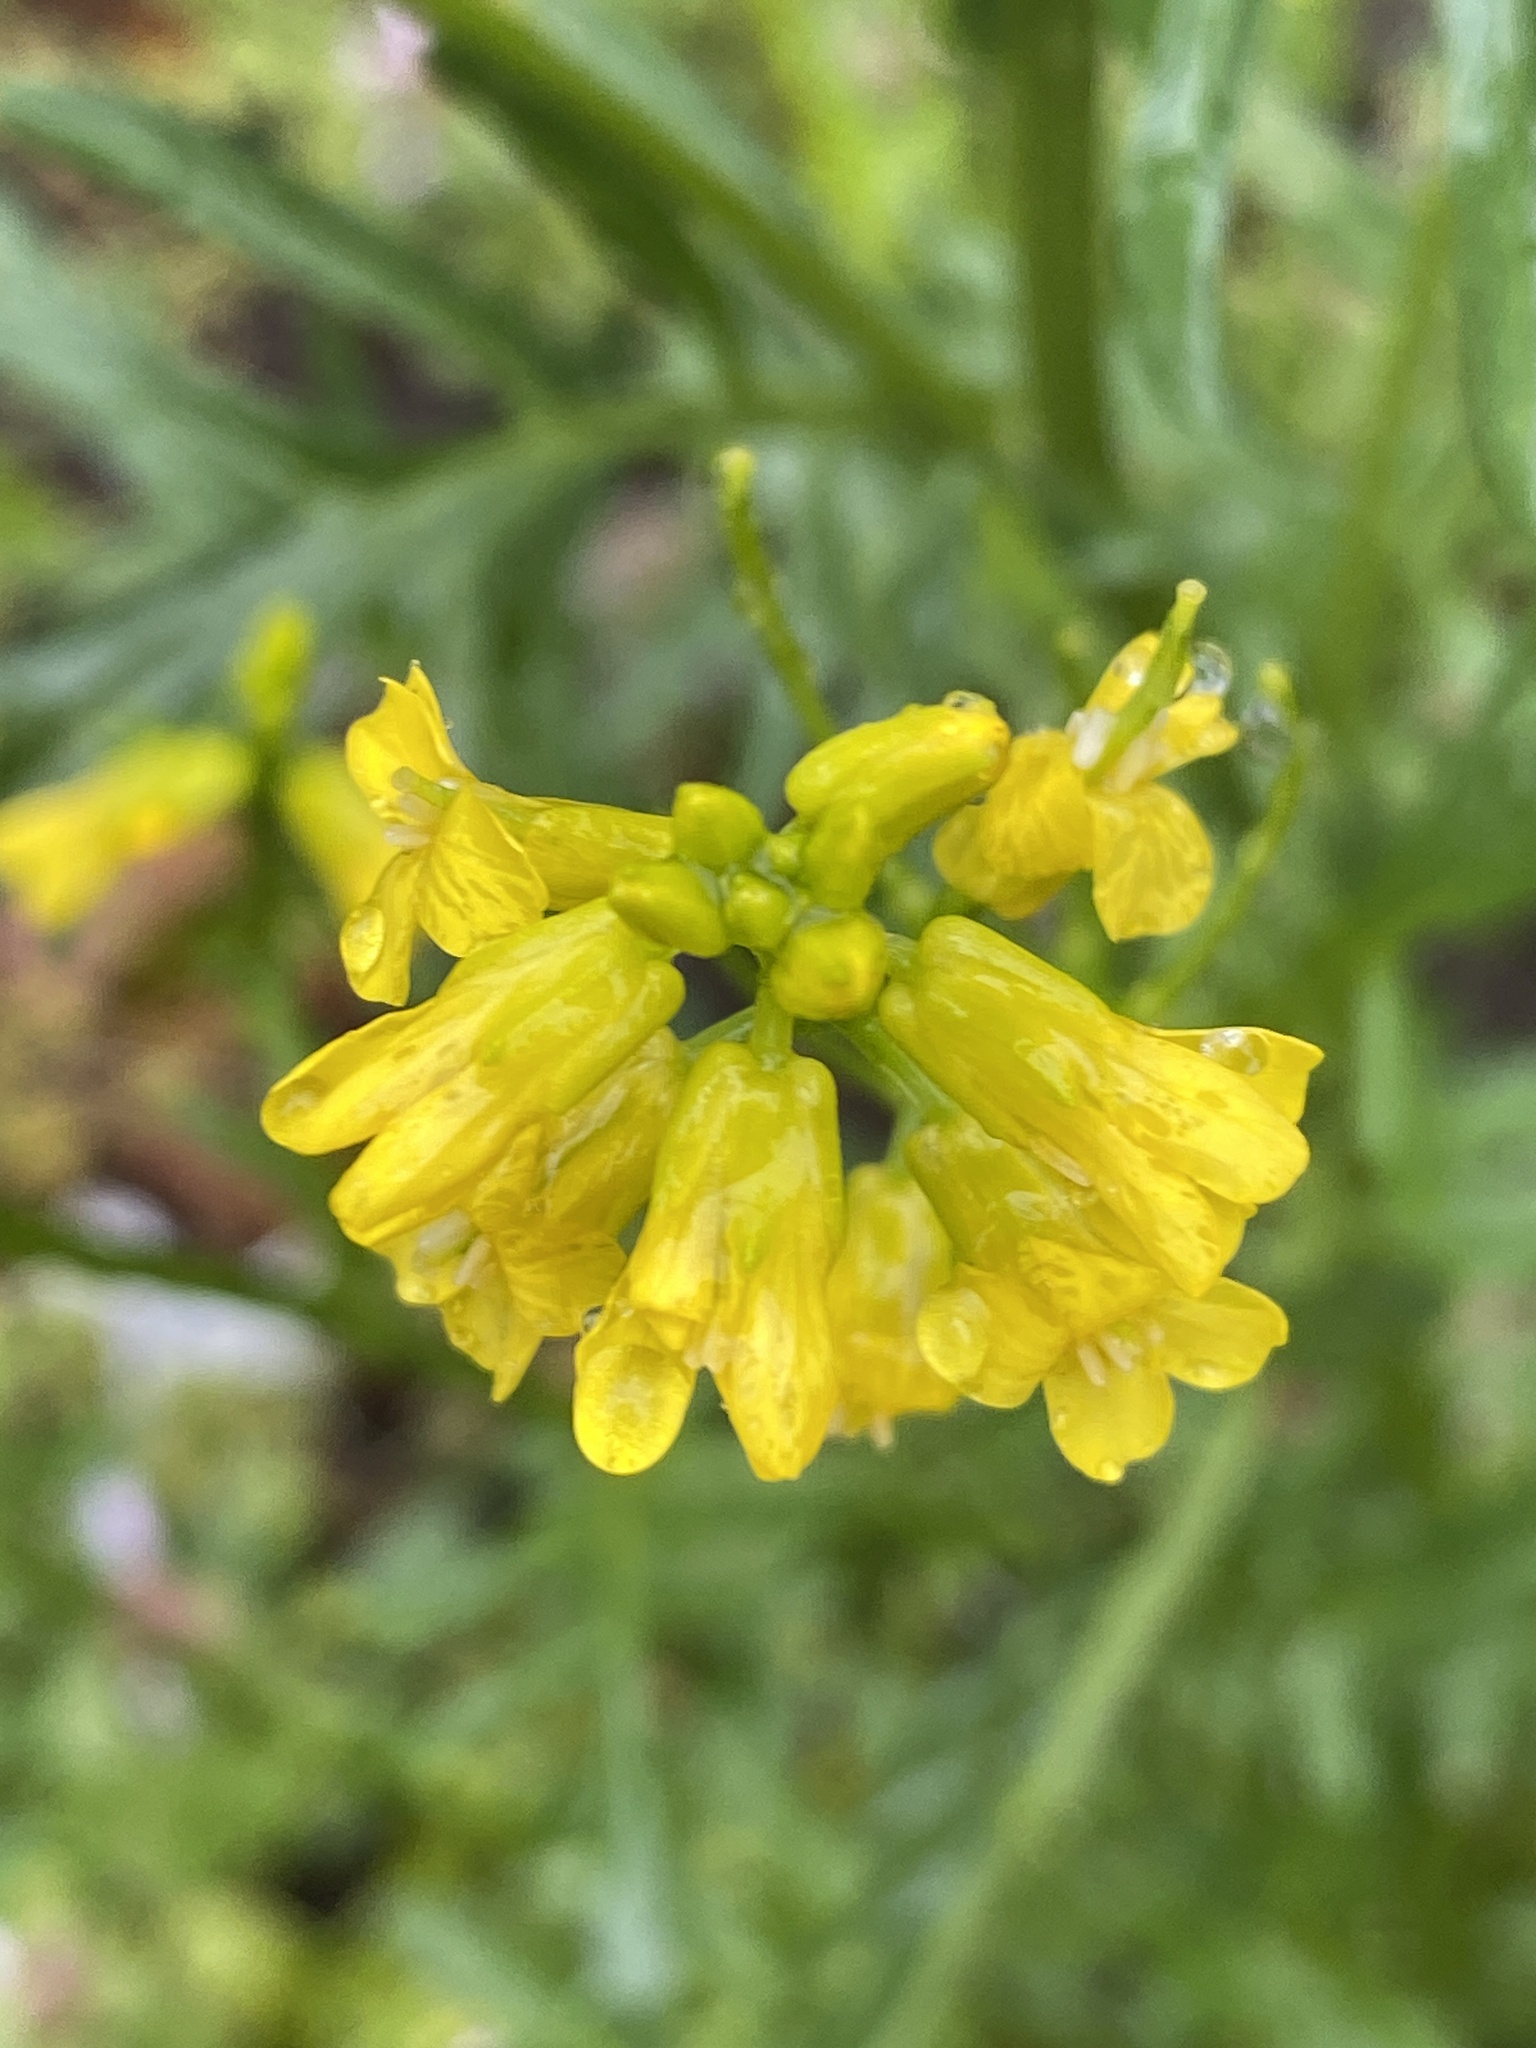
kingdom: Plantae
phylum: Tracheophyta
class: Magnoliopsida
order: Brassicales
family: Brassicaceae
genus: Barbarea
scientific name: Barbarea verna
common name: American cress
